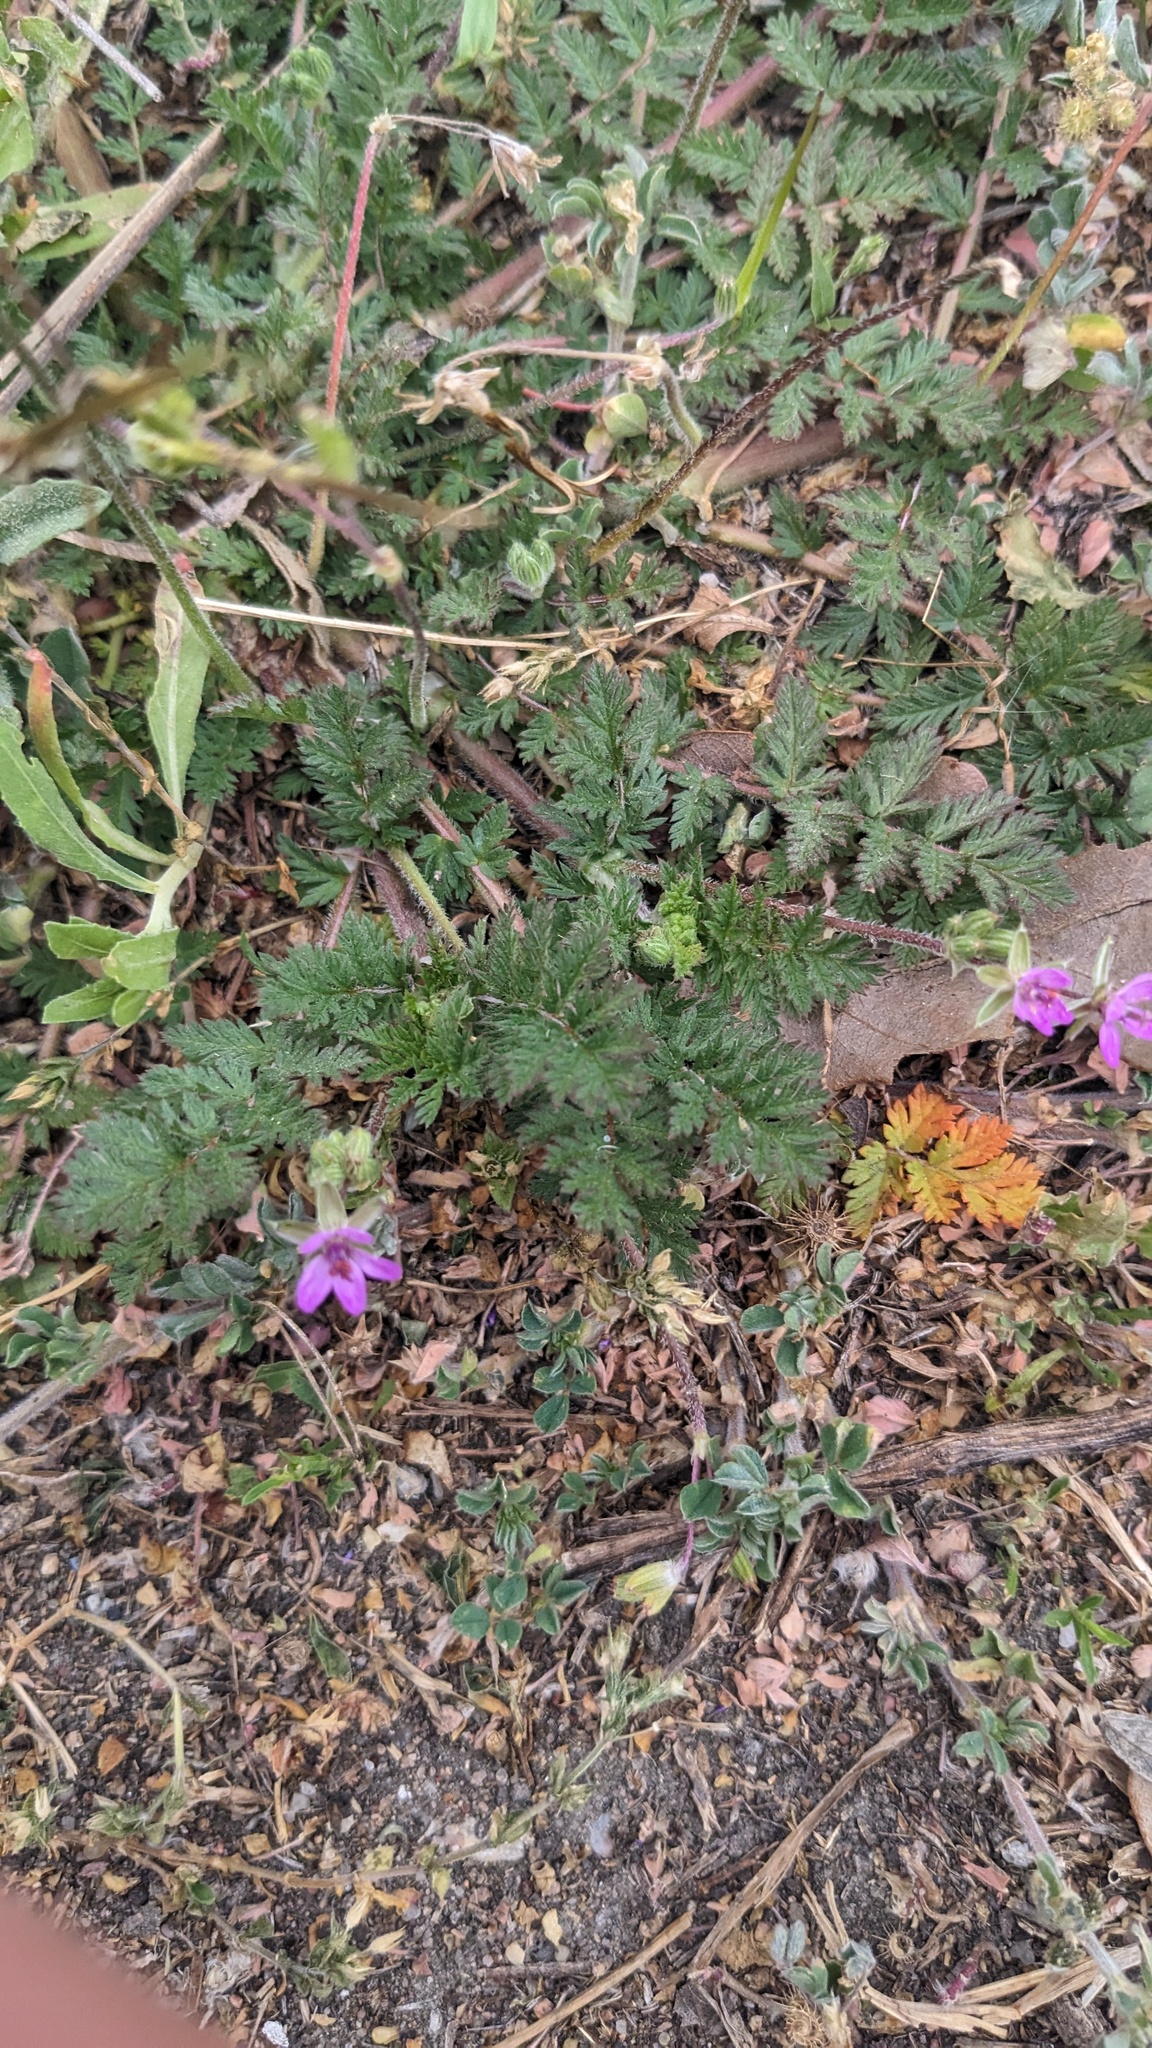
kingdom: Plantae
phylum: Tracheophyta
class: Magnoliopsida
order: Geraniales
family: Geraniaceae
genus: Erodium
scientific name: Erodium cicutarium
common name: Common stork's-bill
